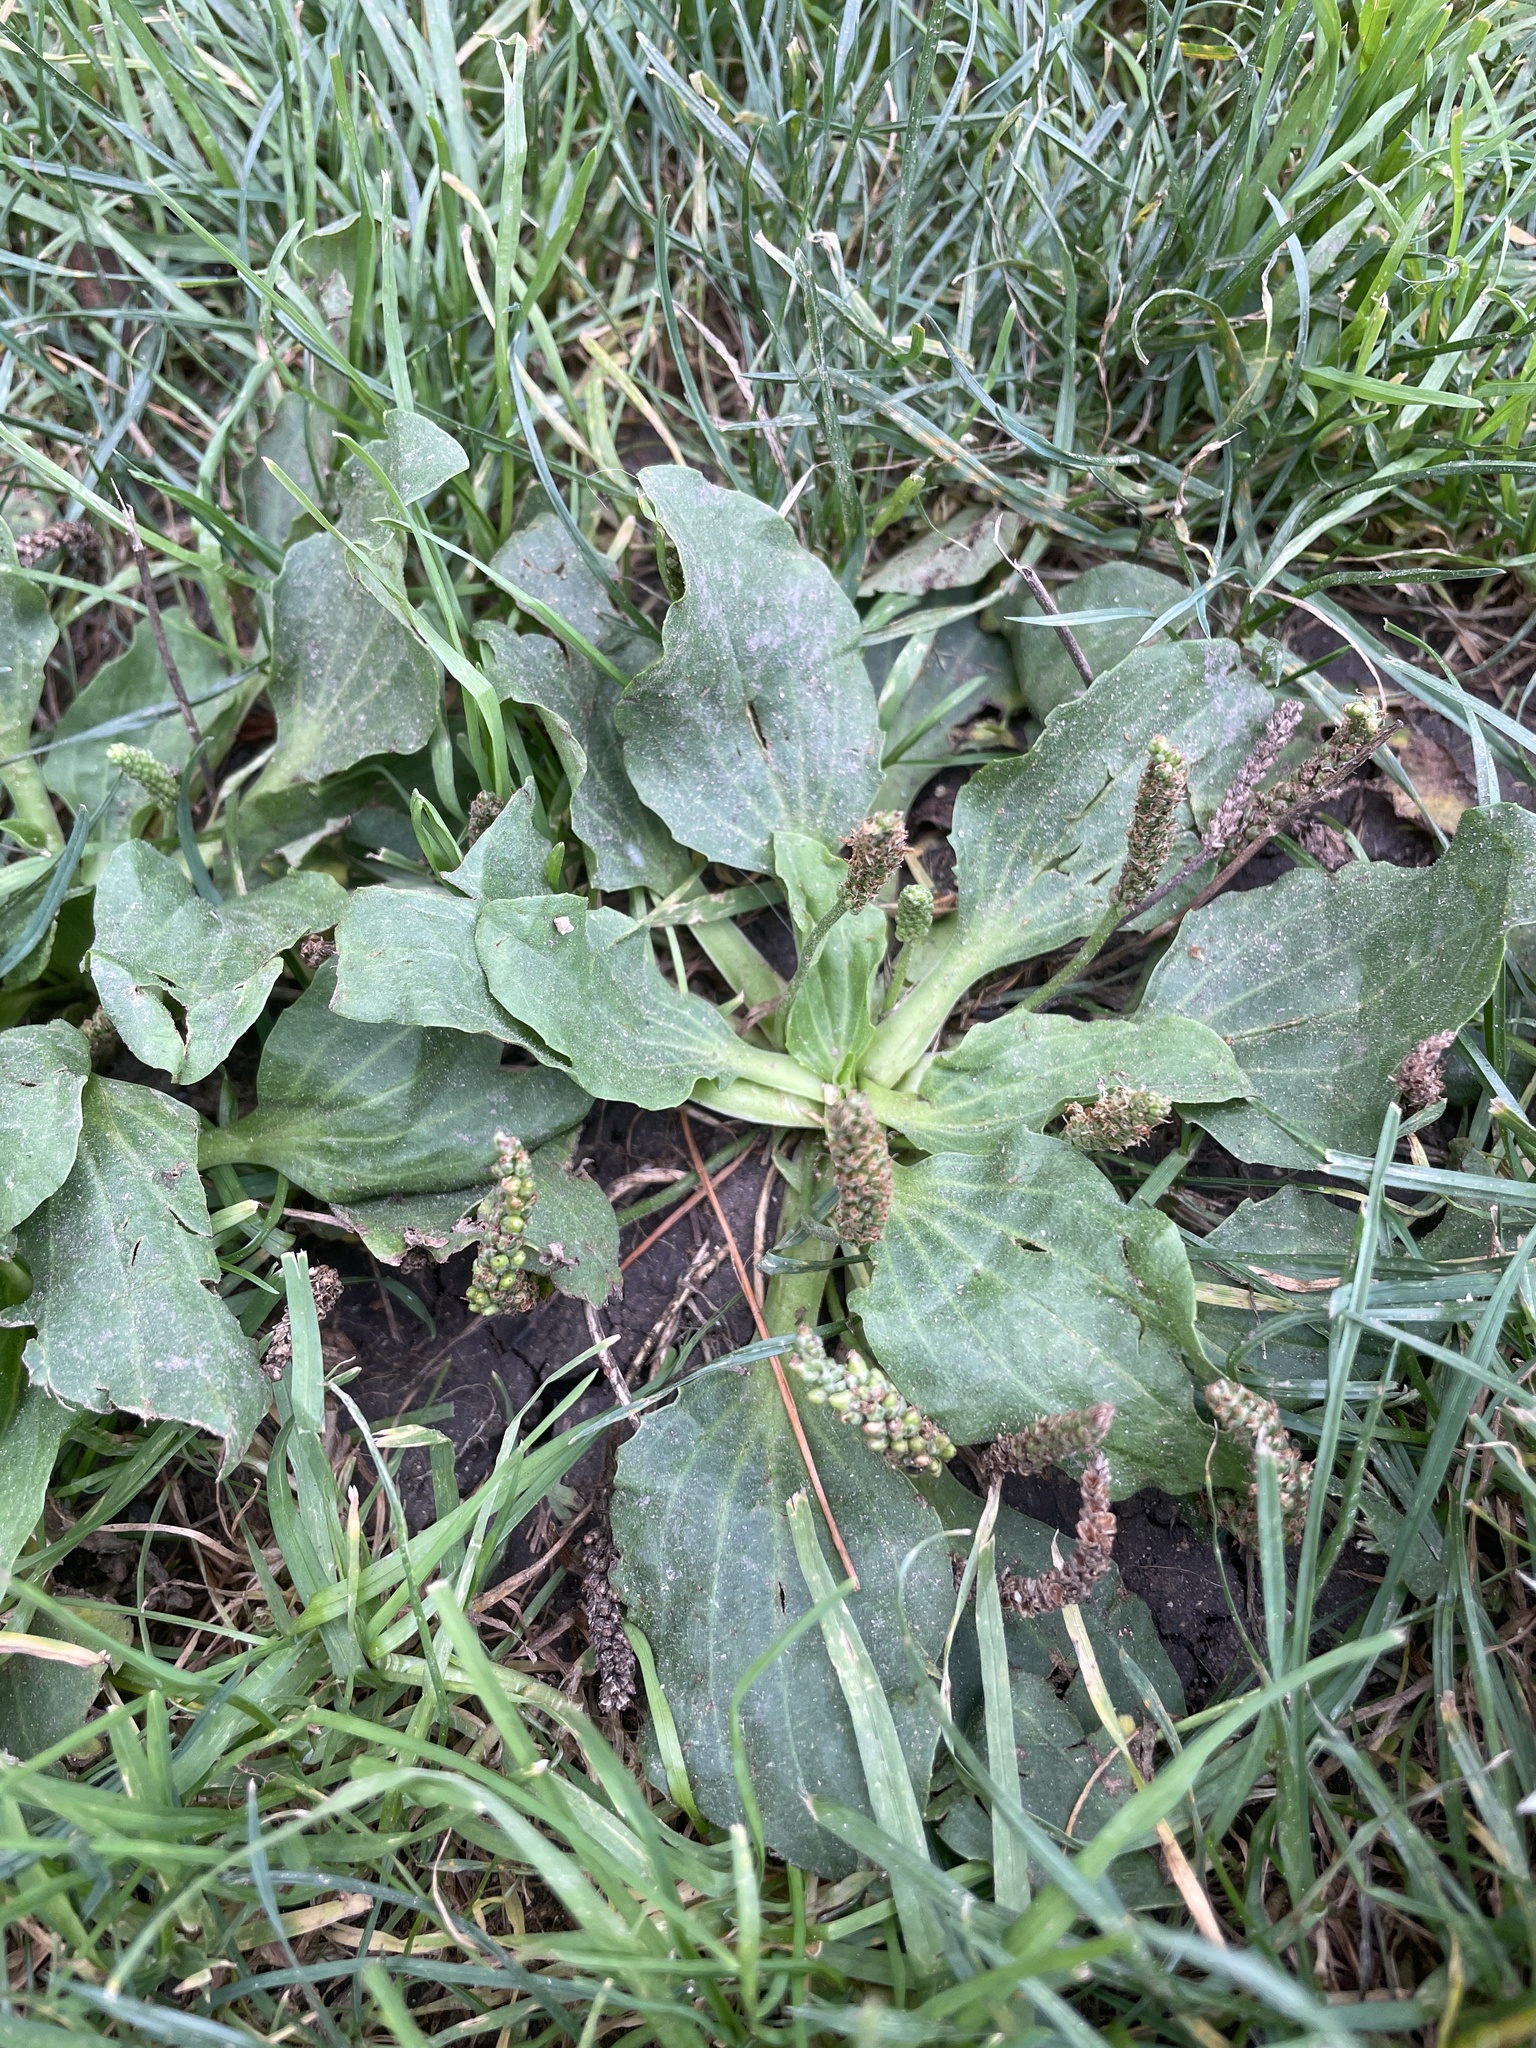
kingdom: Plantae
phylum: Tracheophyta
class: Magnoliopsida
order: Lamiales
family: Plantaginaceae
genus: Plantago
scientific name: Plantago major
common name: Common plantain
